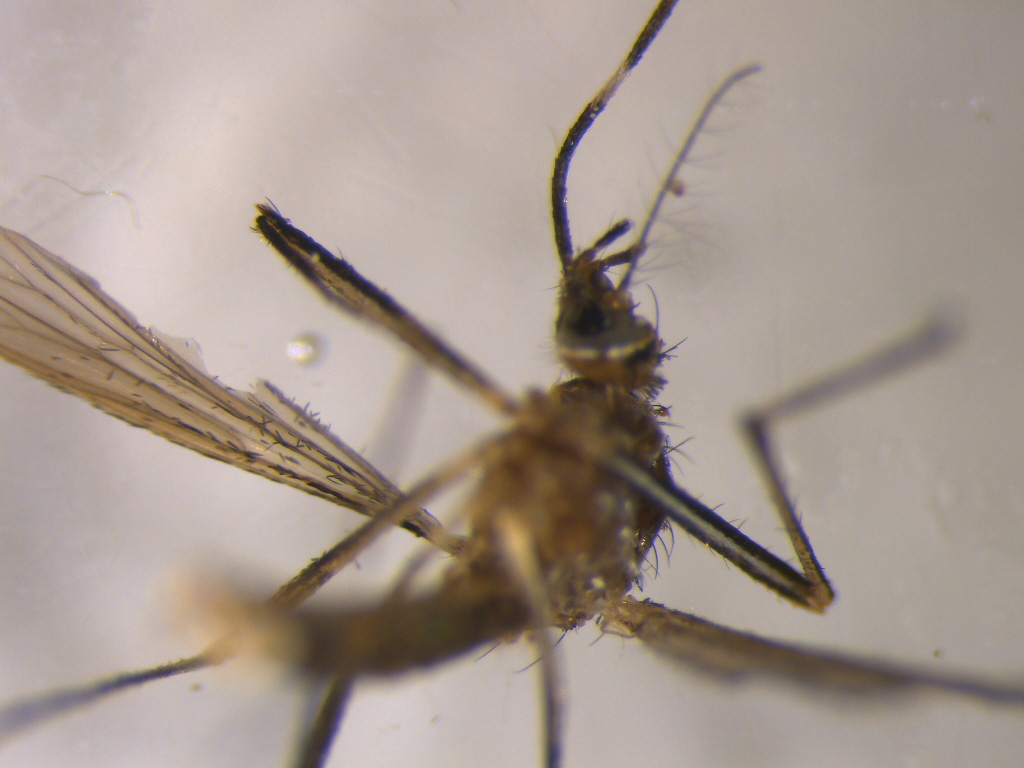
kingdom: Animalia
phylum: Arthropoda
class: Insecta
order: Diptera
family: Culicidae
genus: Aedes
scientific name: Aedes notoscriptus
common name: Australian backyard mosquito
